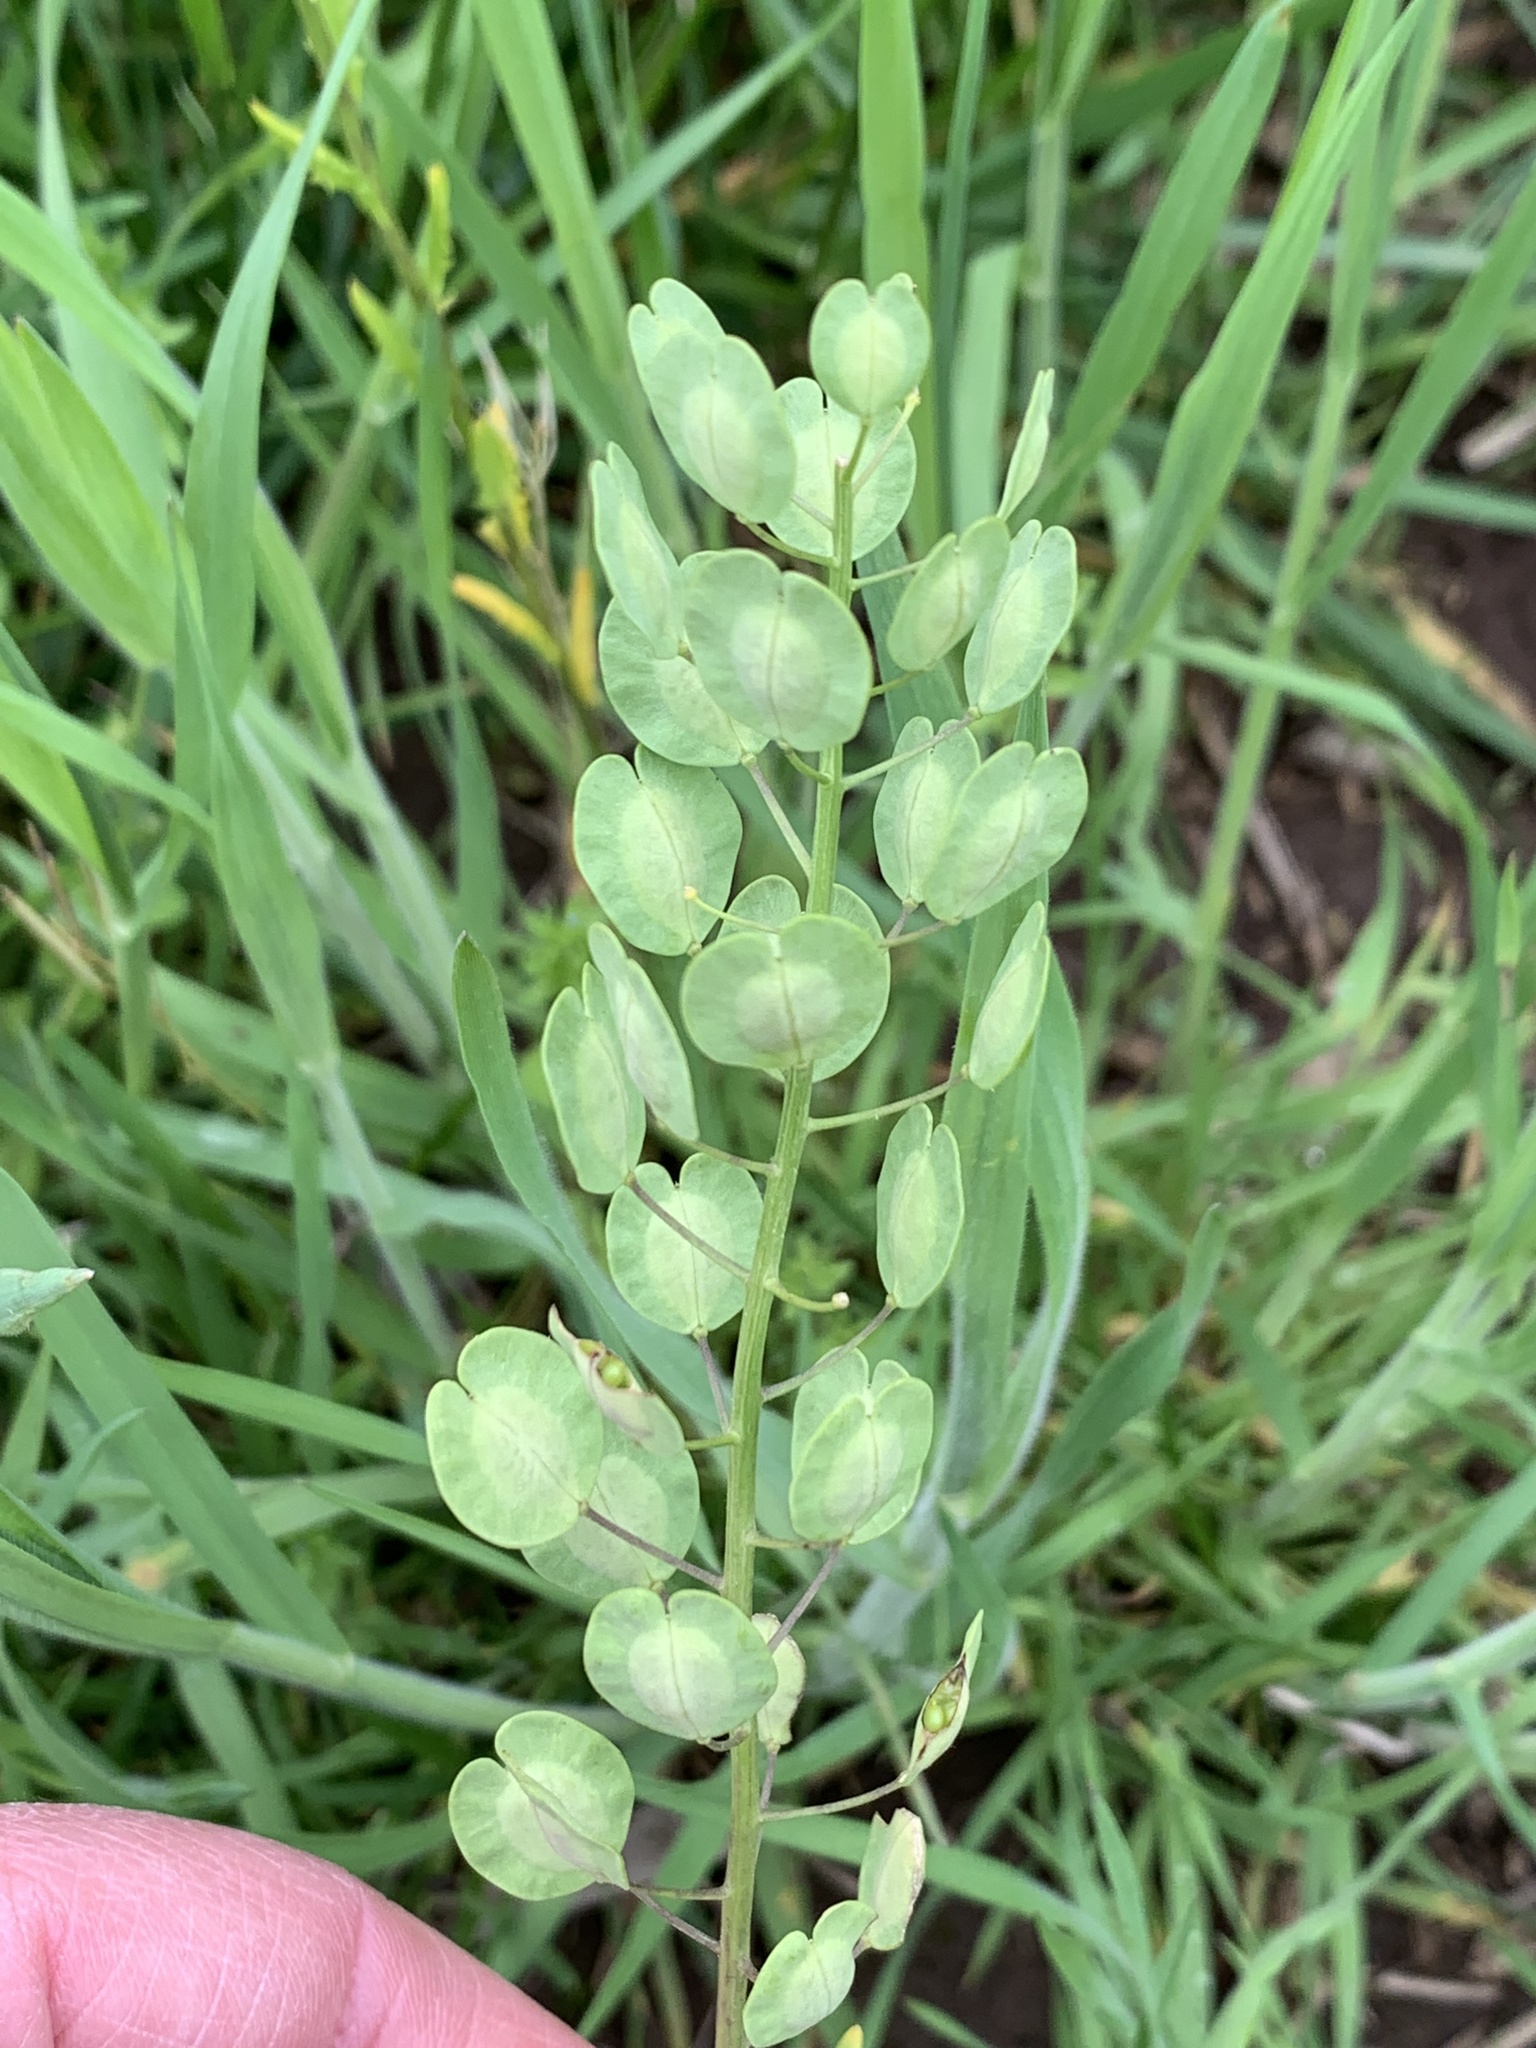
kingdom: Plantae
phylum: Tracheophyta
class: Magnoliopsida
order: Brassicales
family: Brassicaceae
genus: Thlaspi
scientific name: Thlaspi arvense
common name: Field pennycress
